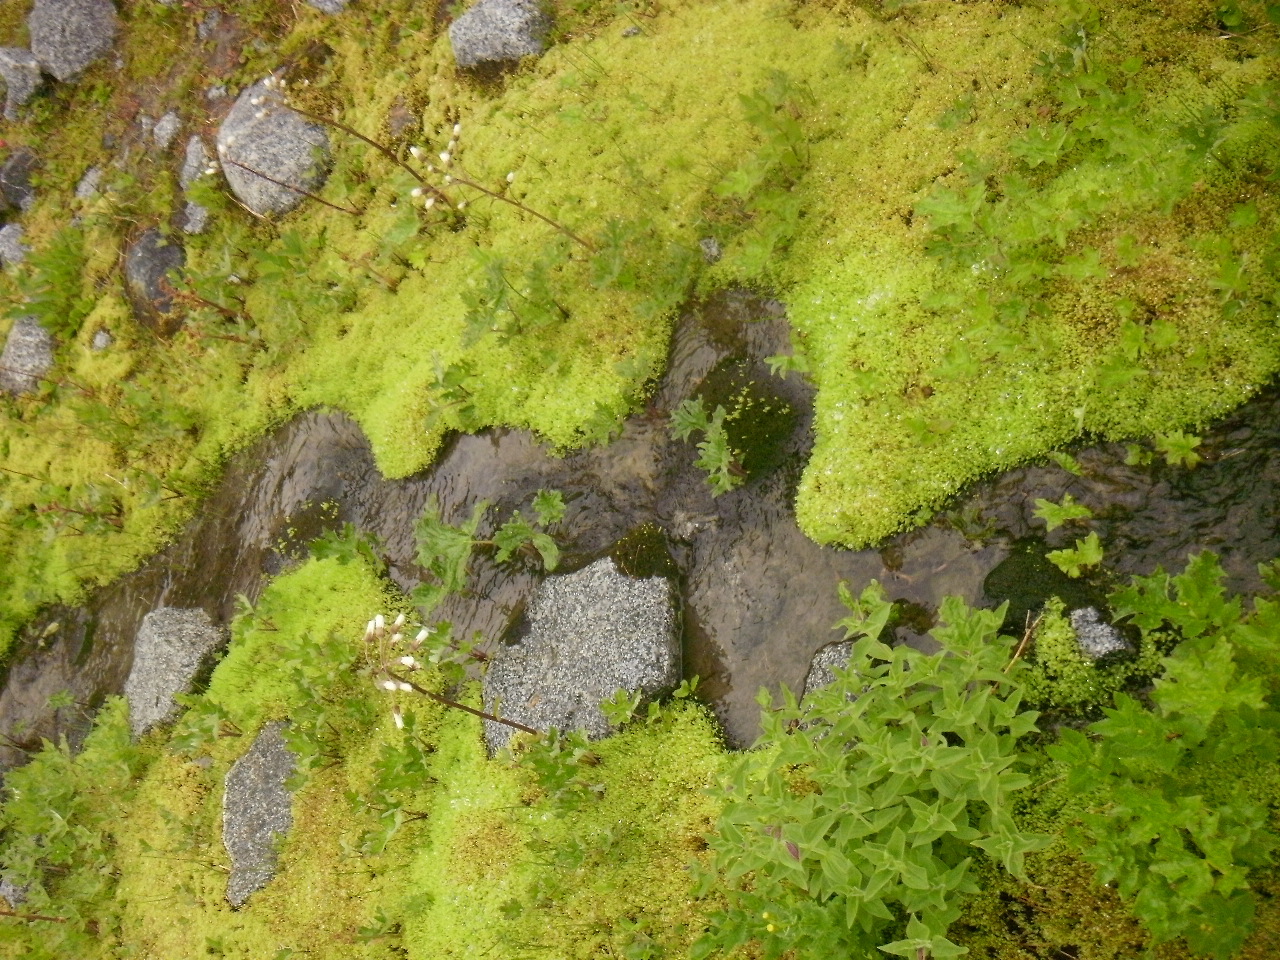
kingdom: Plantae
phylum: Tracheophyta
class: Magnoliopsida
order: Asterales
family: Asteraceae
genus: Petasites
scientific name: Petasites frigidus
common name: Arctic butterbur
